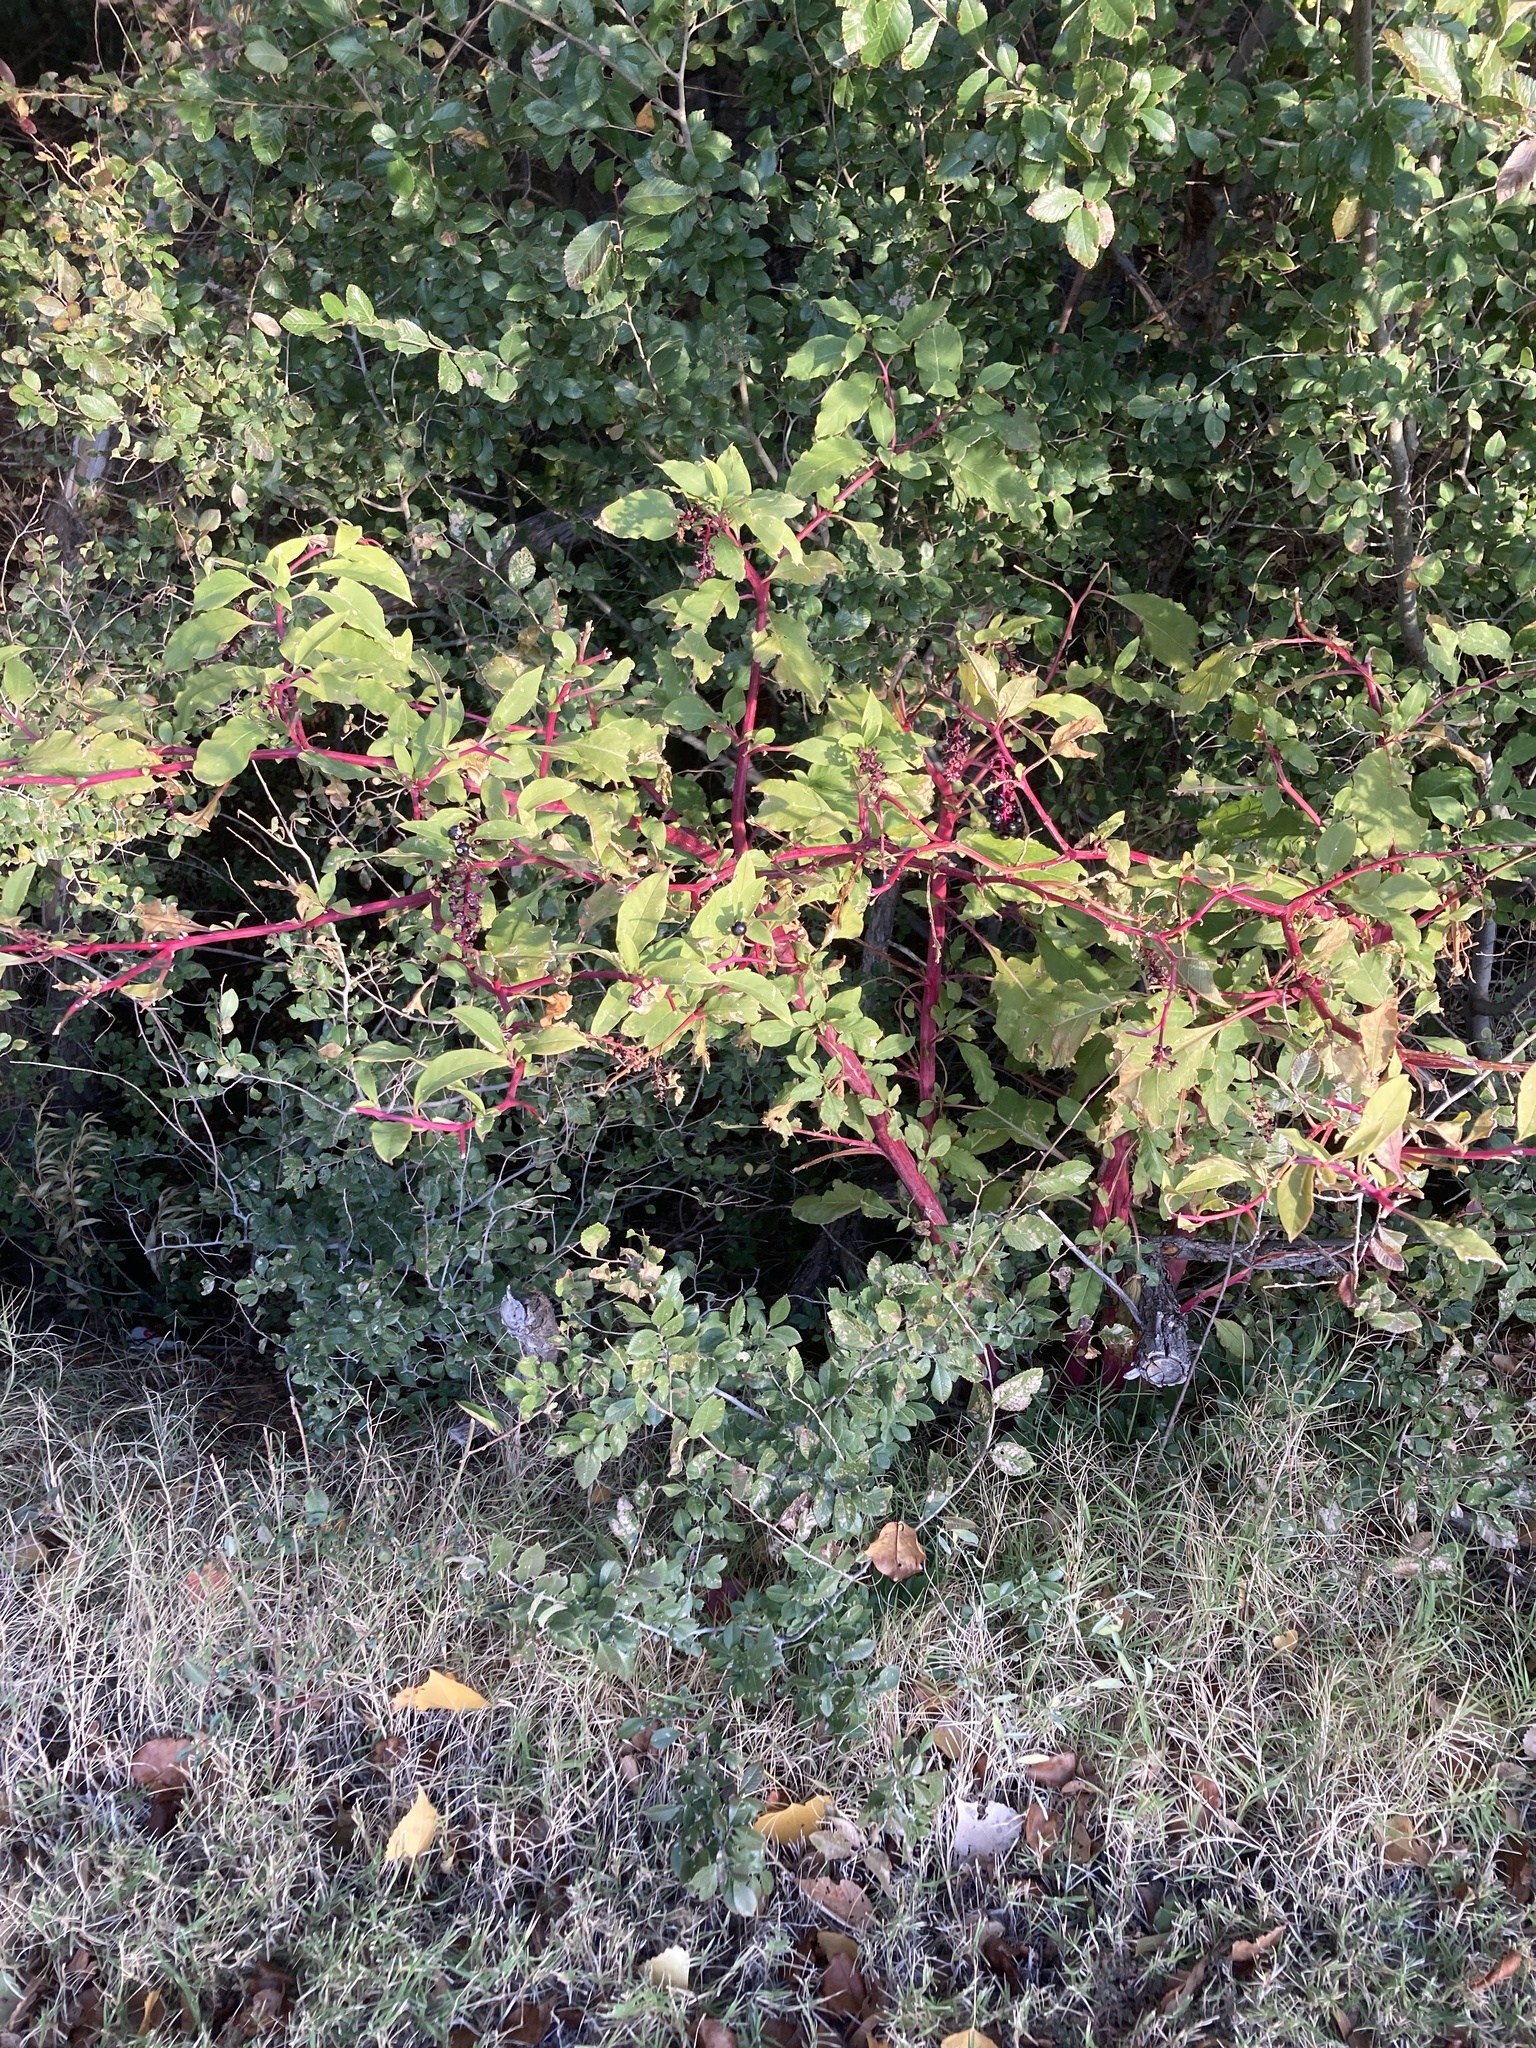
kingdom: Plantae
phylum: Tracheophyta
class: Magnoliopsida
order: Caryophyllales
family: Phytolaccaceae
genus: Phytolacca
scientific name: Phytolacca americana
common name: American pokeweed
